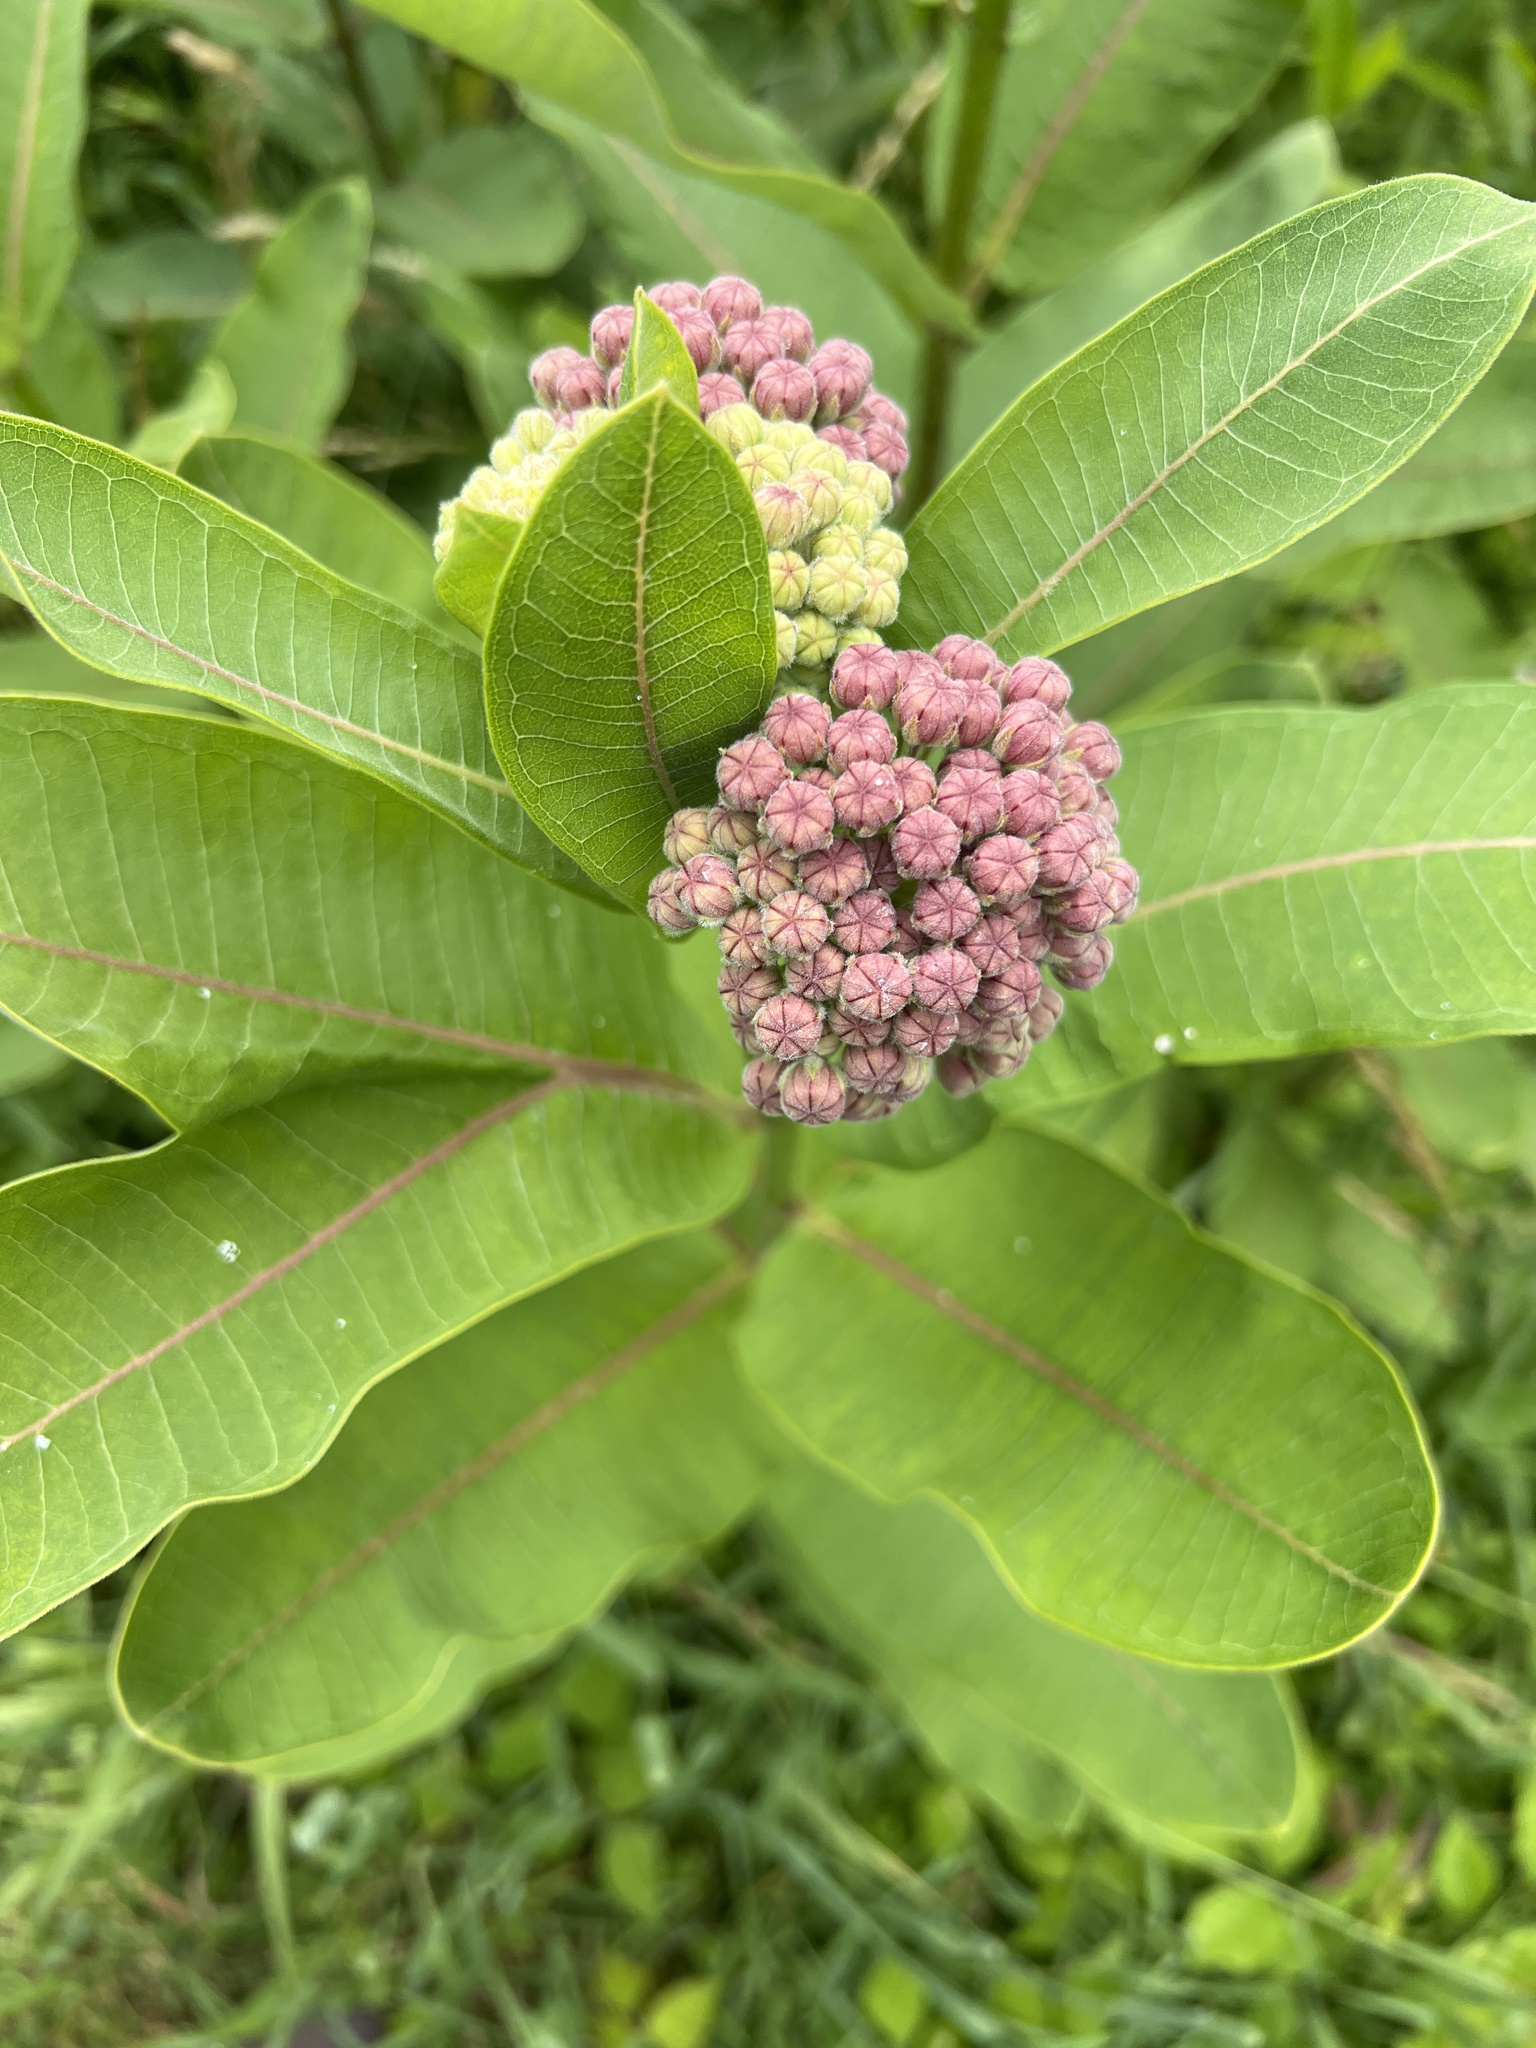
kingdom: Plantae
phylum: Tracheophyta
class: Magnoliopsida
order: Gentianales
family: Apocynaceae
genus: Asclepias
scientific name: Asclepias syriaca
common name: Common milkweed
